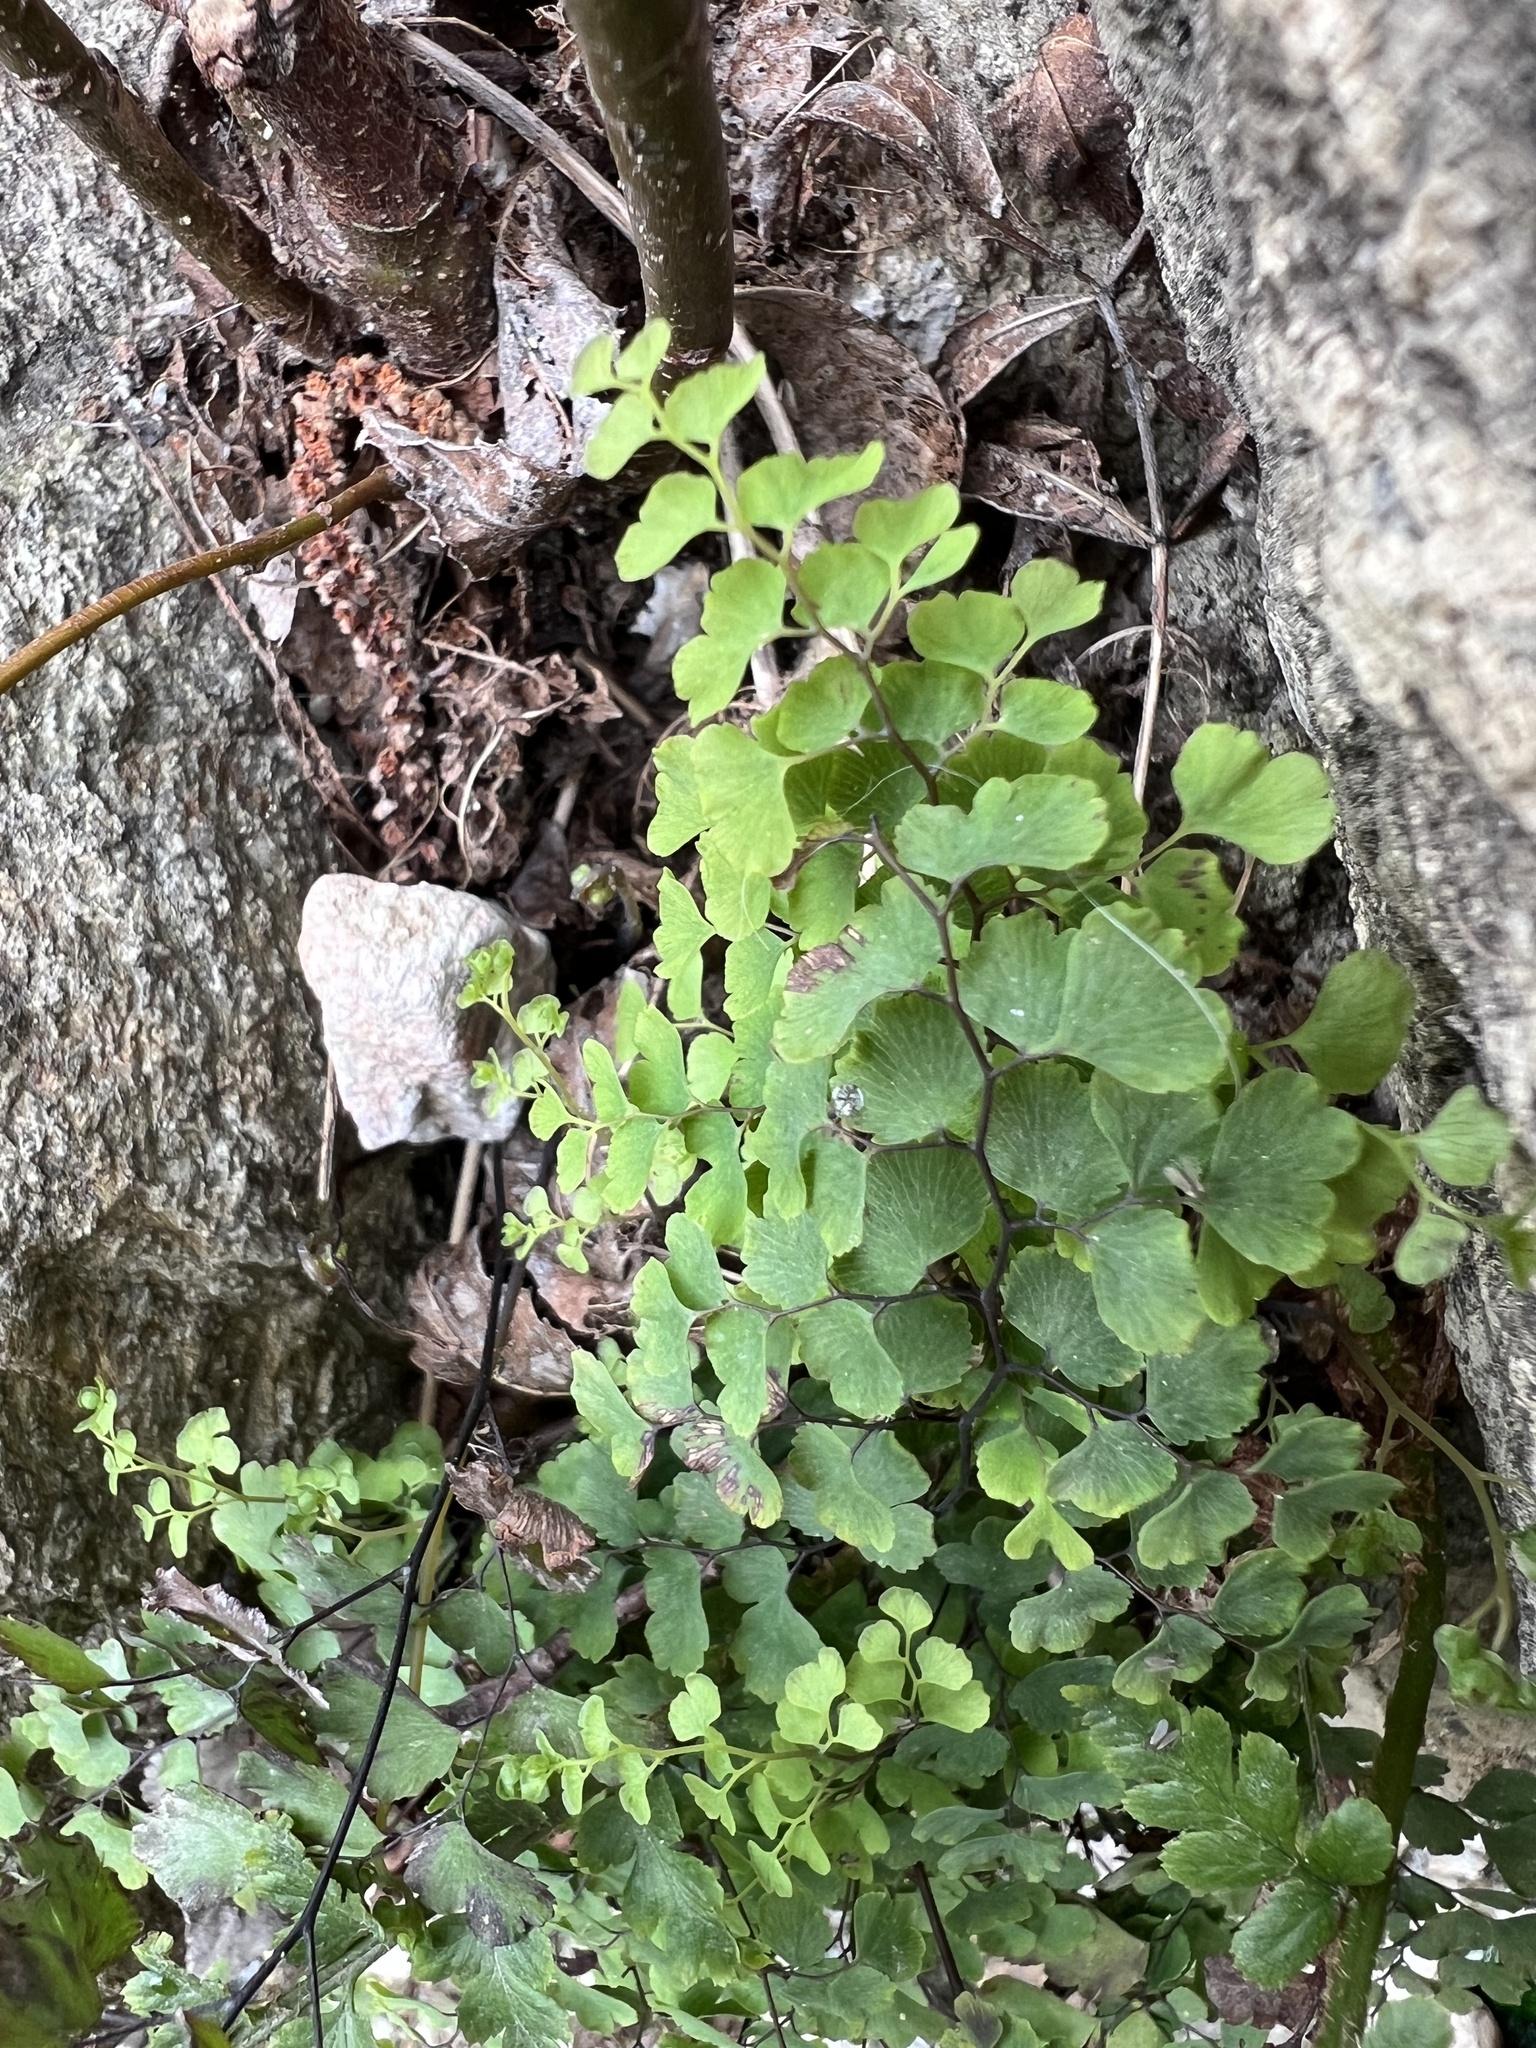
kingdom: Plantae
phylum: Tracheophyta
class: Polypodiopsida
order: Polypodiales
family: Pteridaceae
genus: Adiantum
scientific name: Adiantum capillus-veneris
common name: Maidenhair fern
